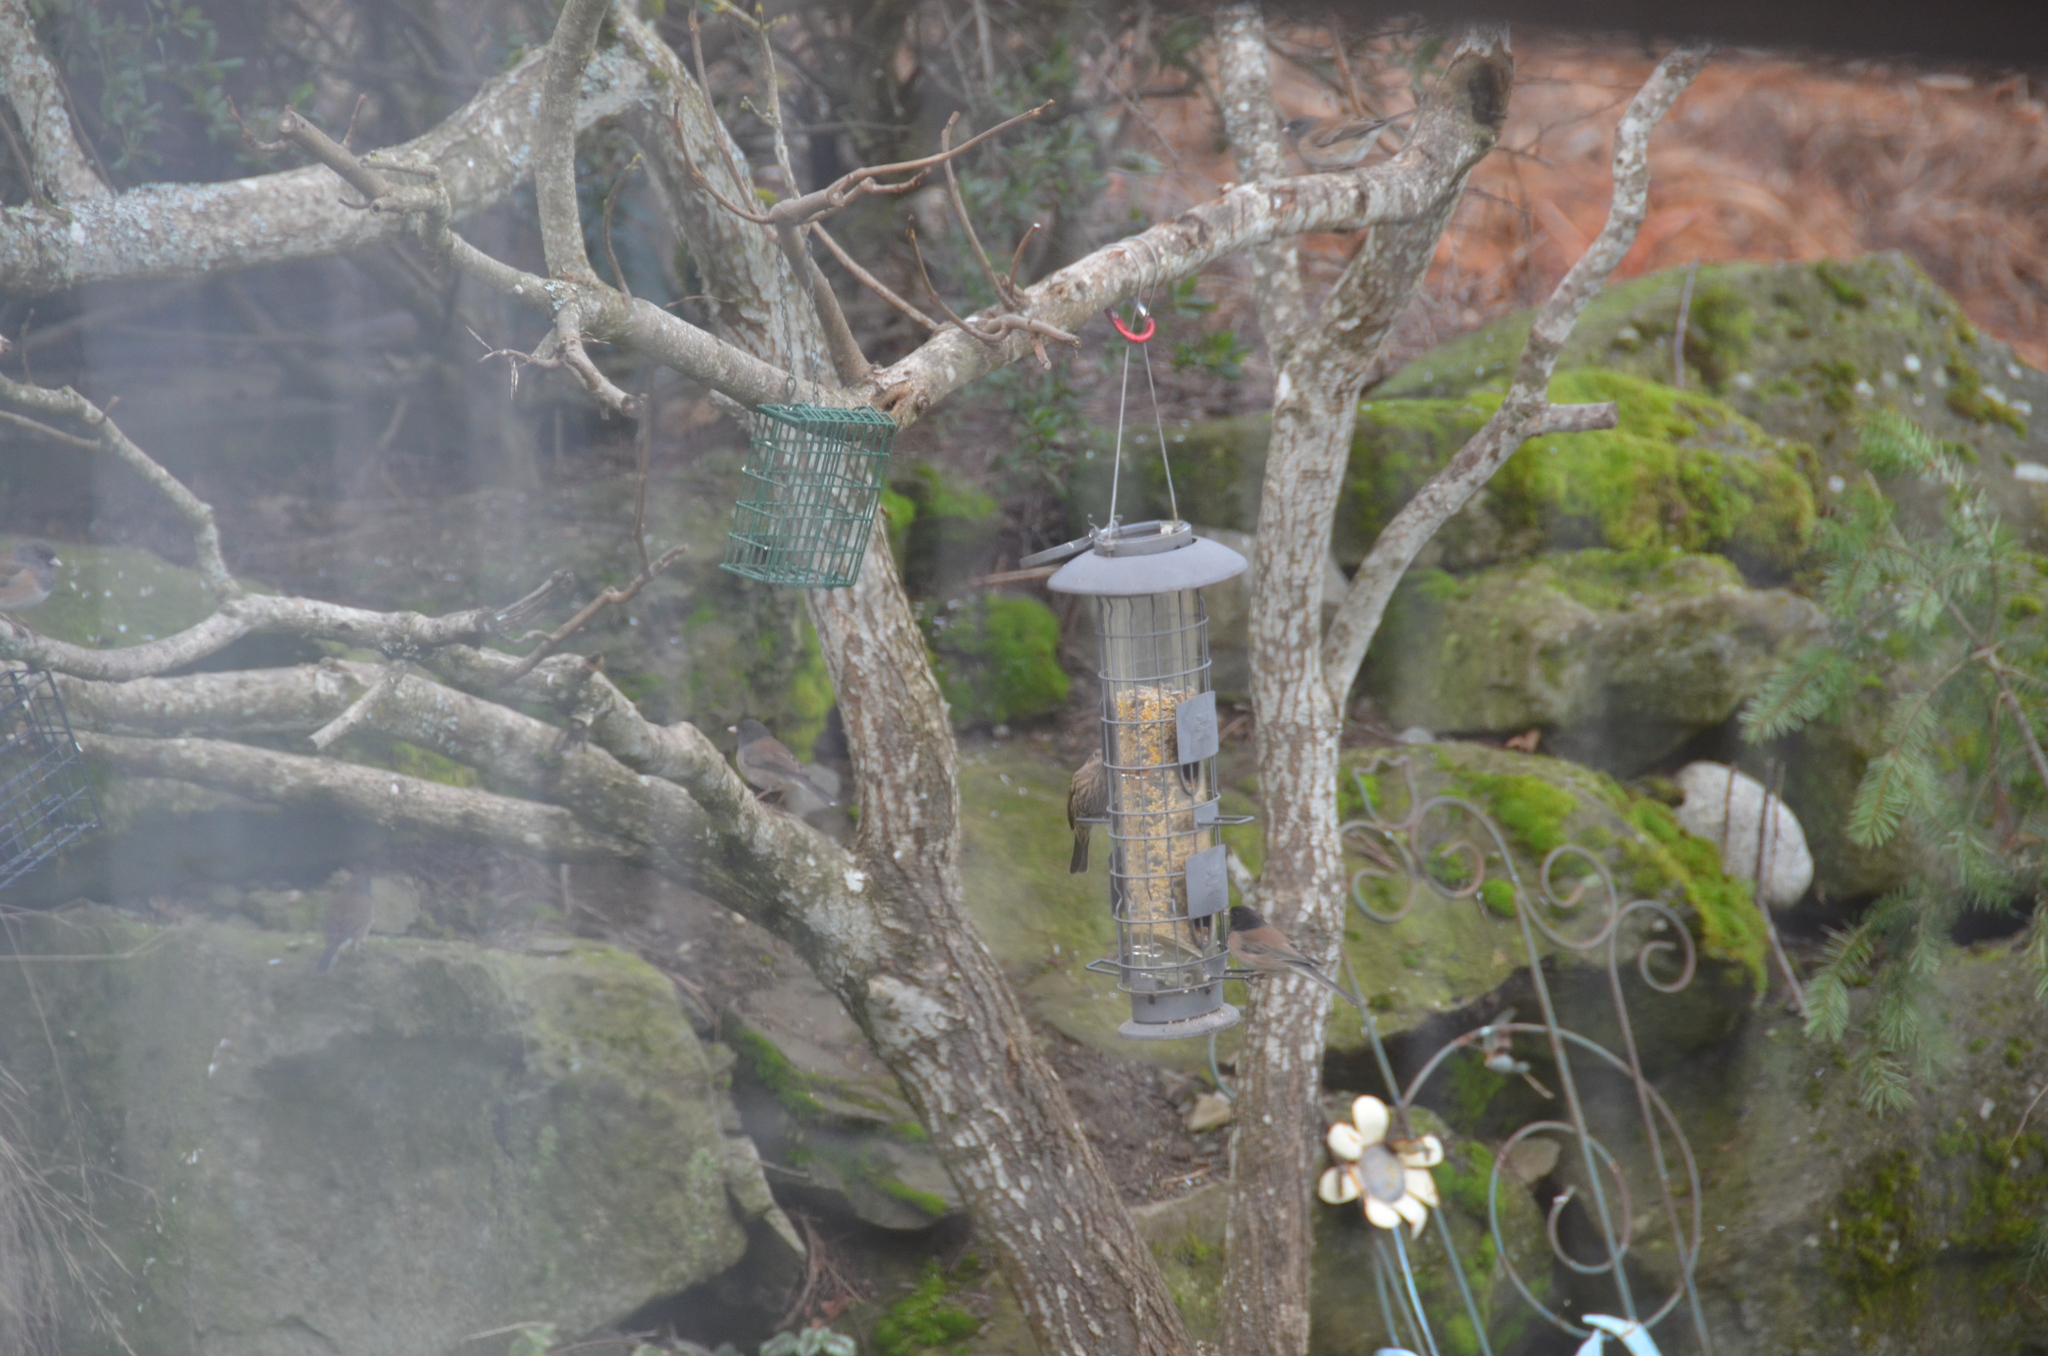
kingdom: Animalia
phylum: Chordata
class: Aves
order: Passeriformes
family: Fringillidae
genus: Haemorhous
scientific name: Haemorhous mexicanus
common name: House finch
